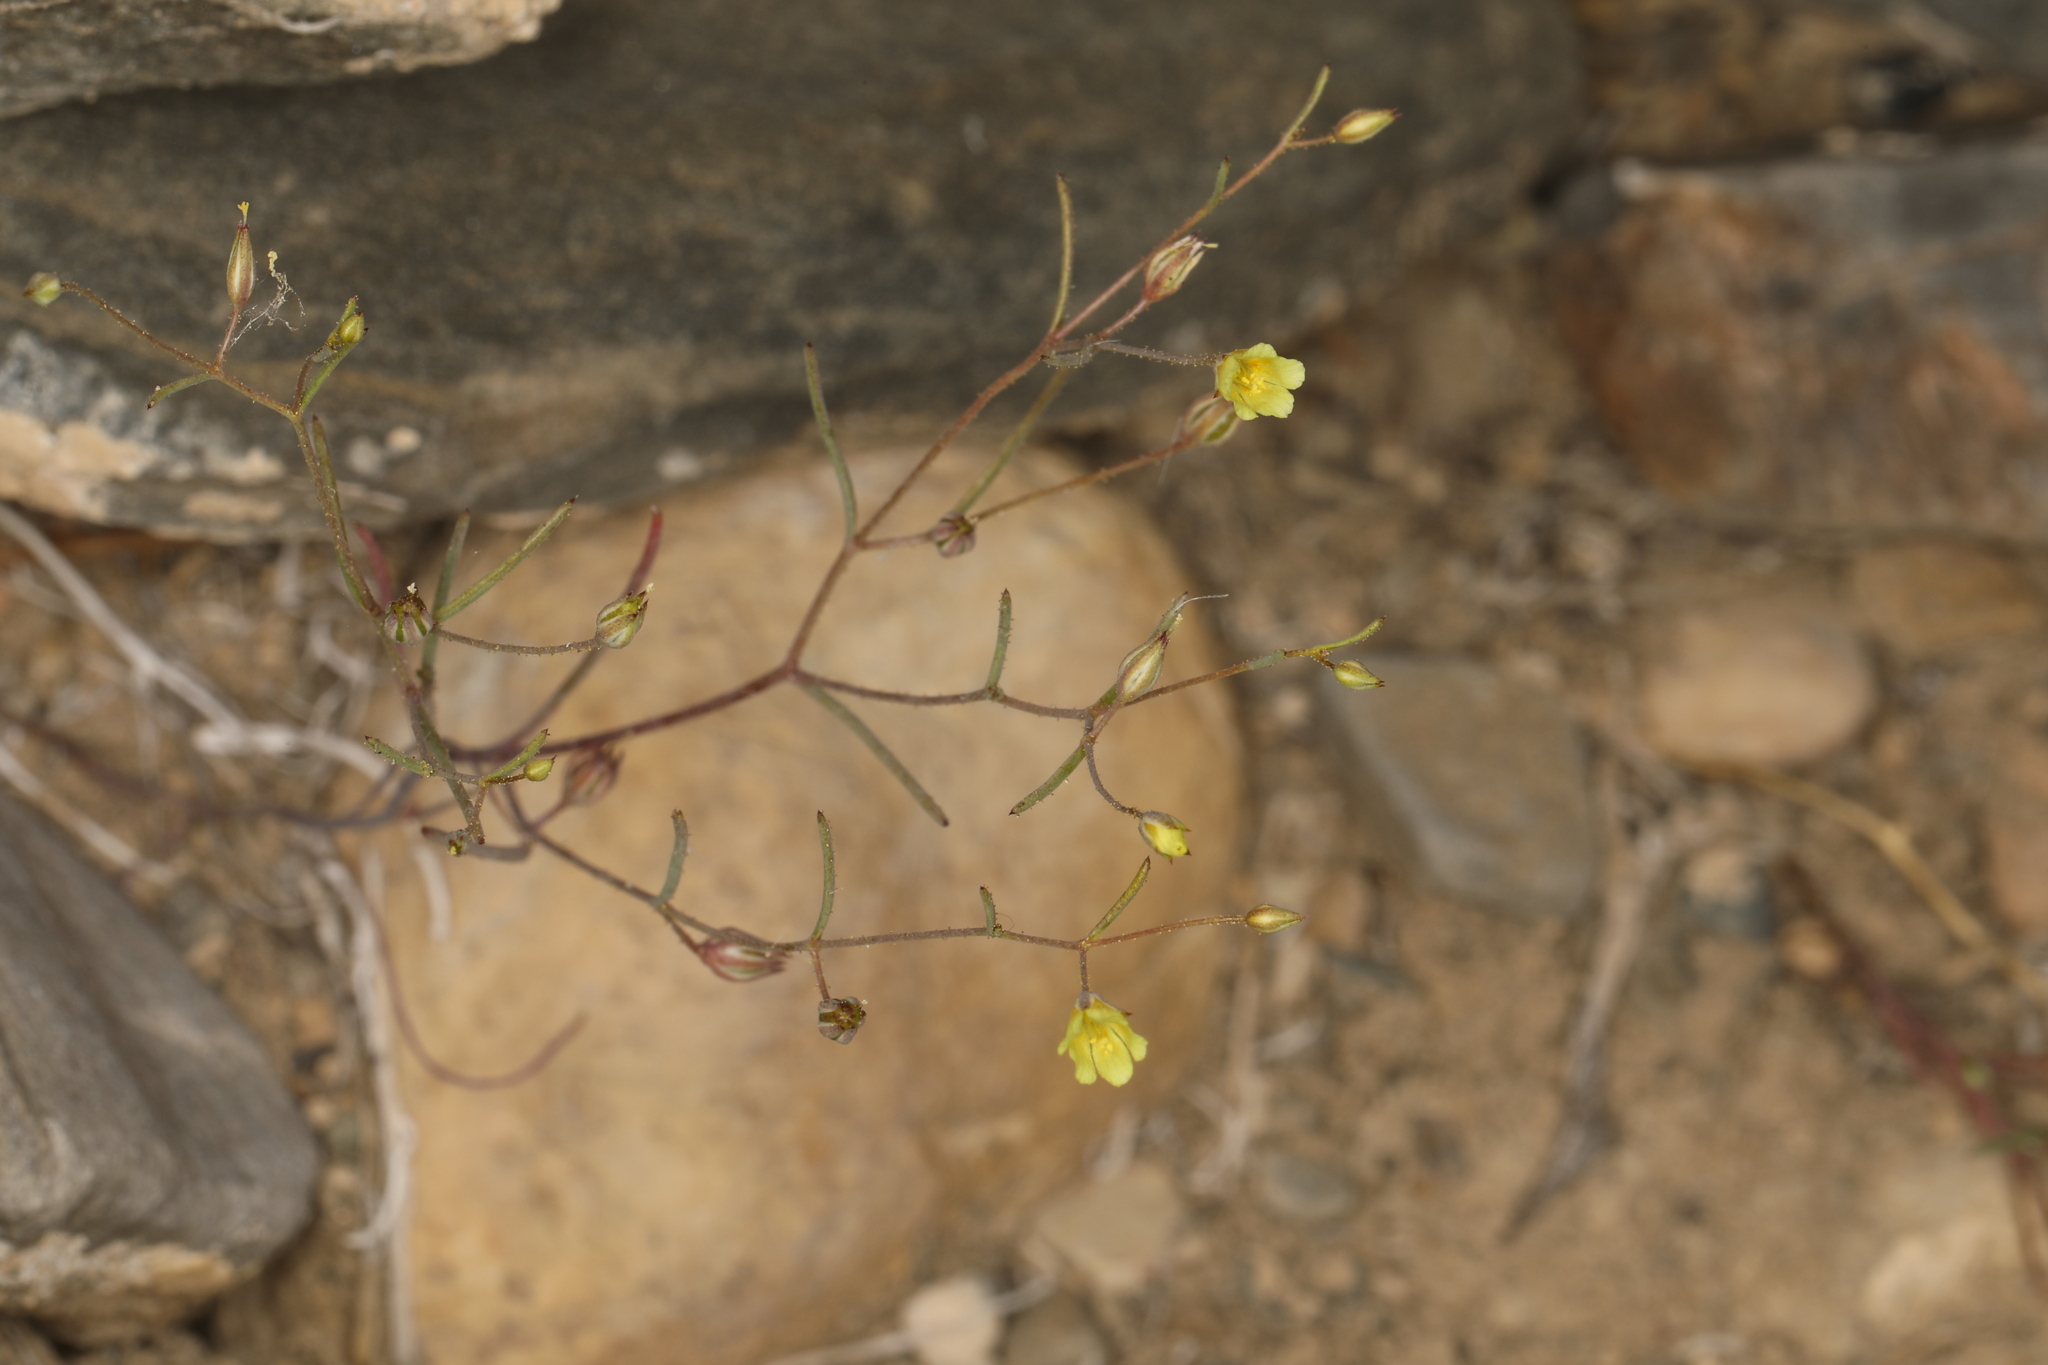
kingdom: Plantae
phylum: Tracheophyta
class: Magnoliopsida
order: Ericales
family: Polemoniaceae
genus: Linanthus
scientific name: Linanthus filiformis
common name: Yellow gilia
